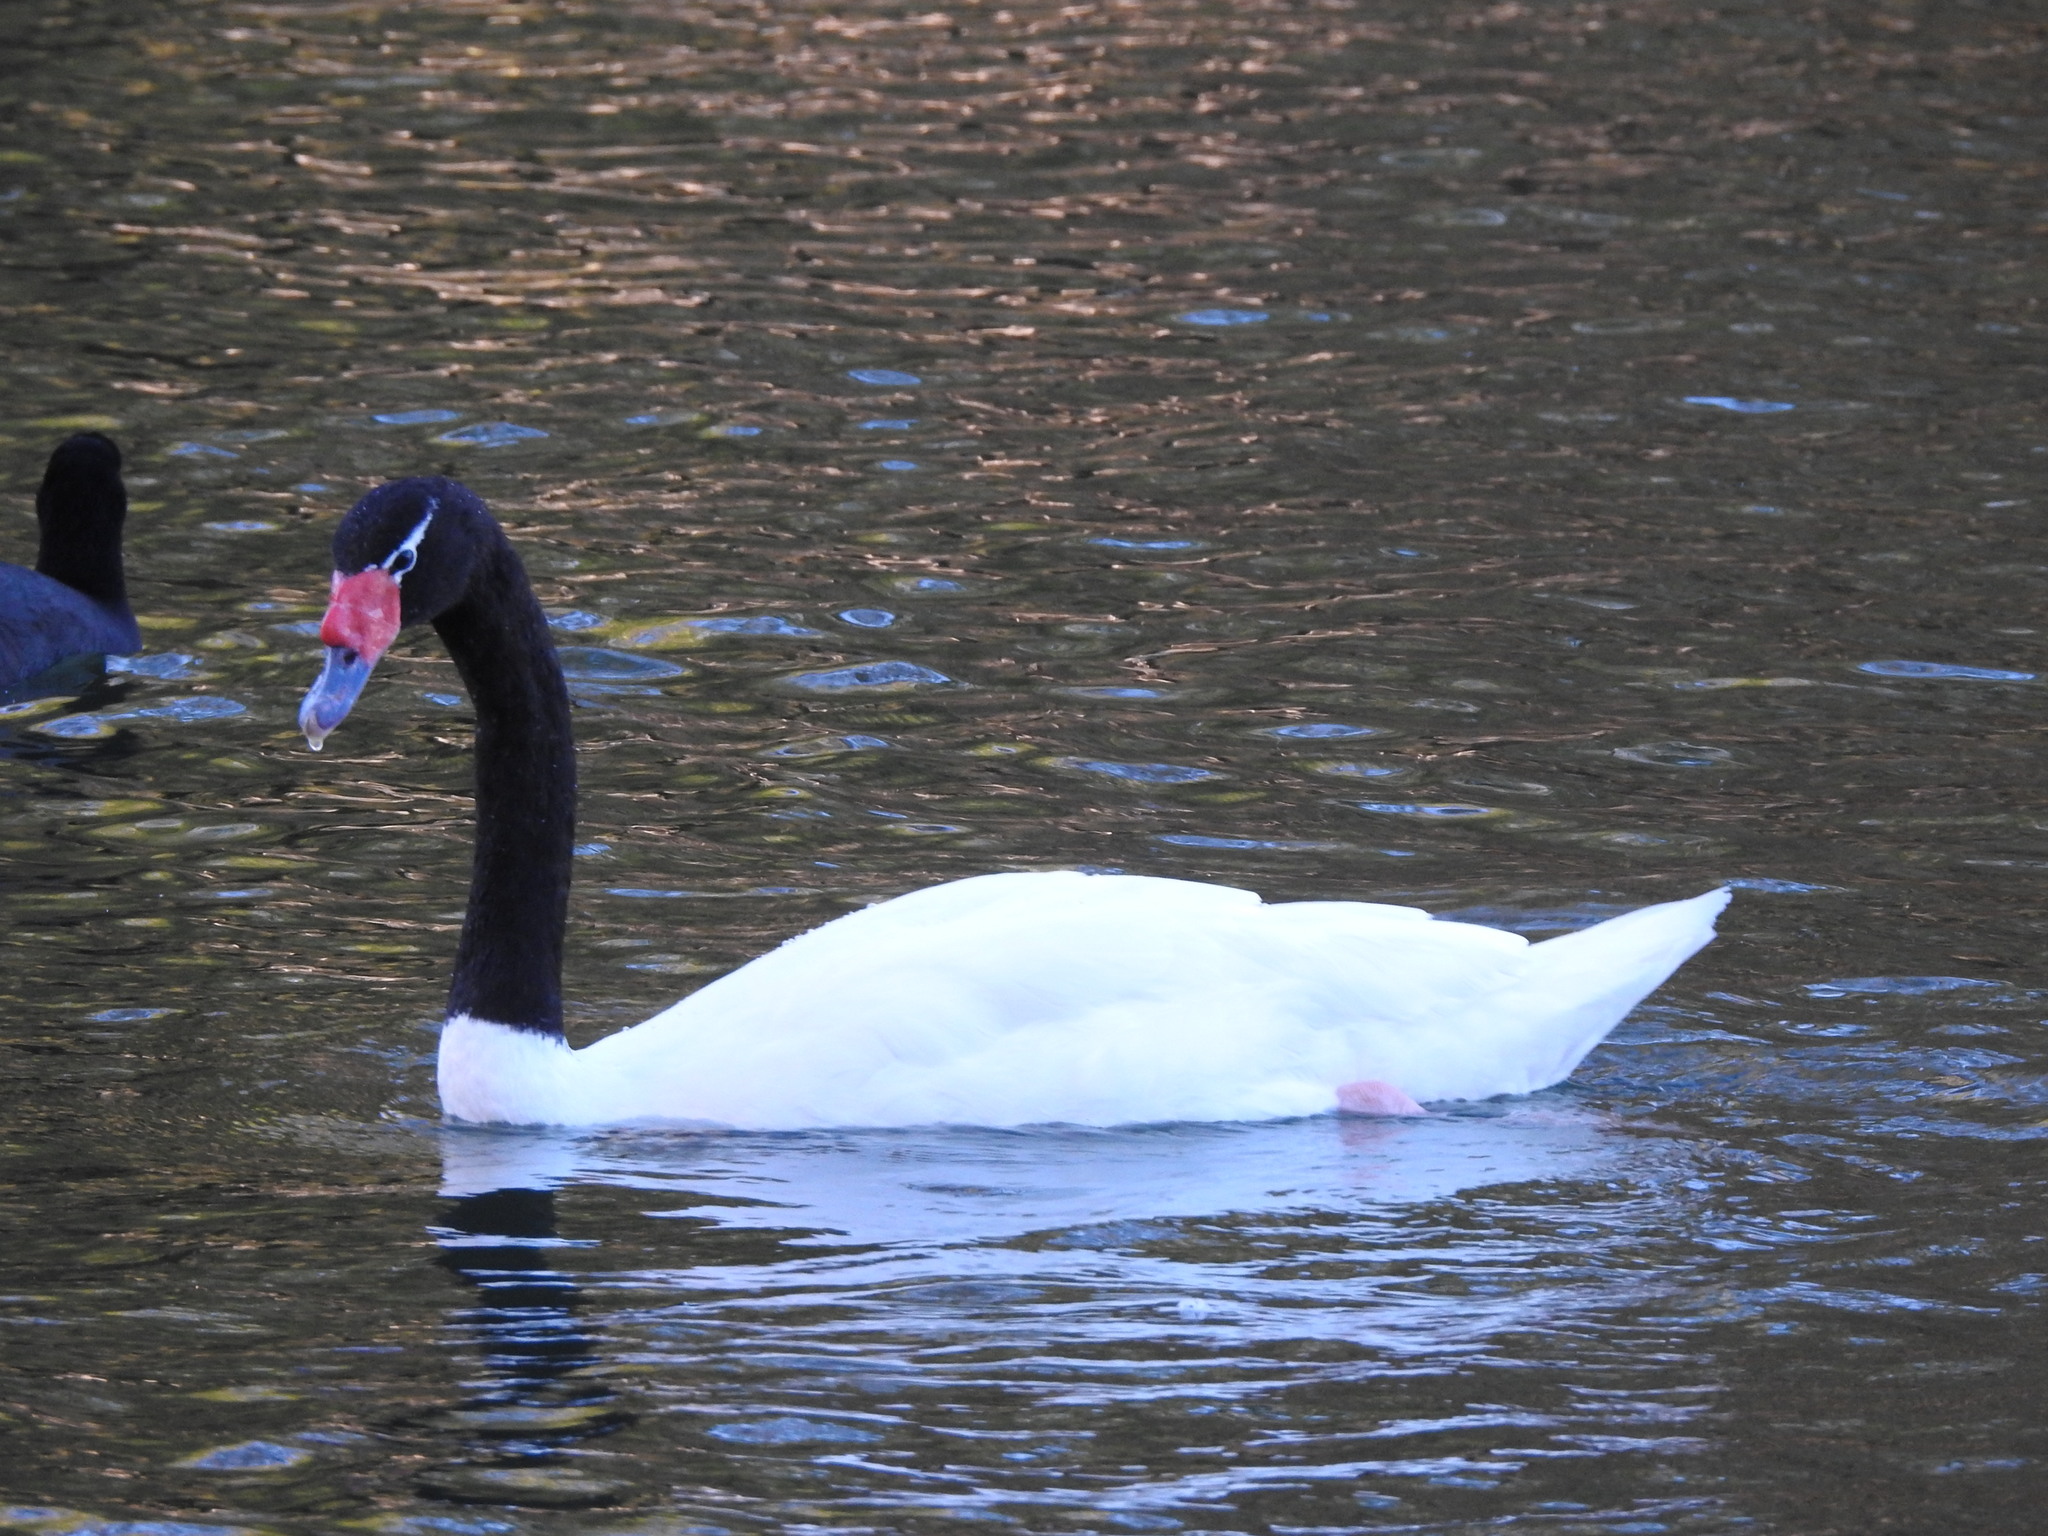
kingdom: Animalia
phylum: Chordata
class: Aves
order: Anseriformes
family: Anatidae
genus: Cygnus
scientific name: Cygnus melancoryphus
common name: Black-necked swan
